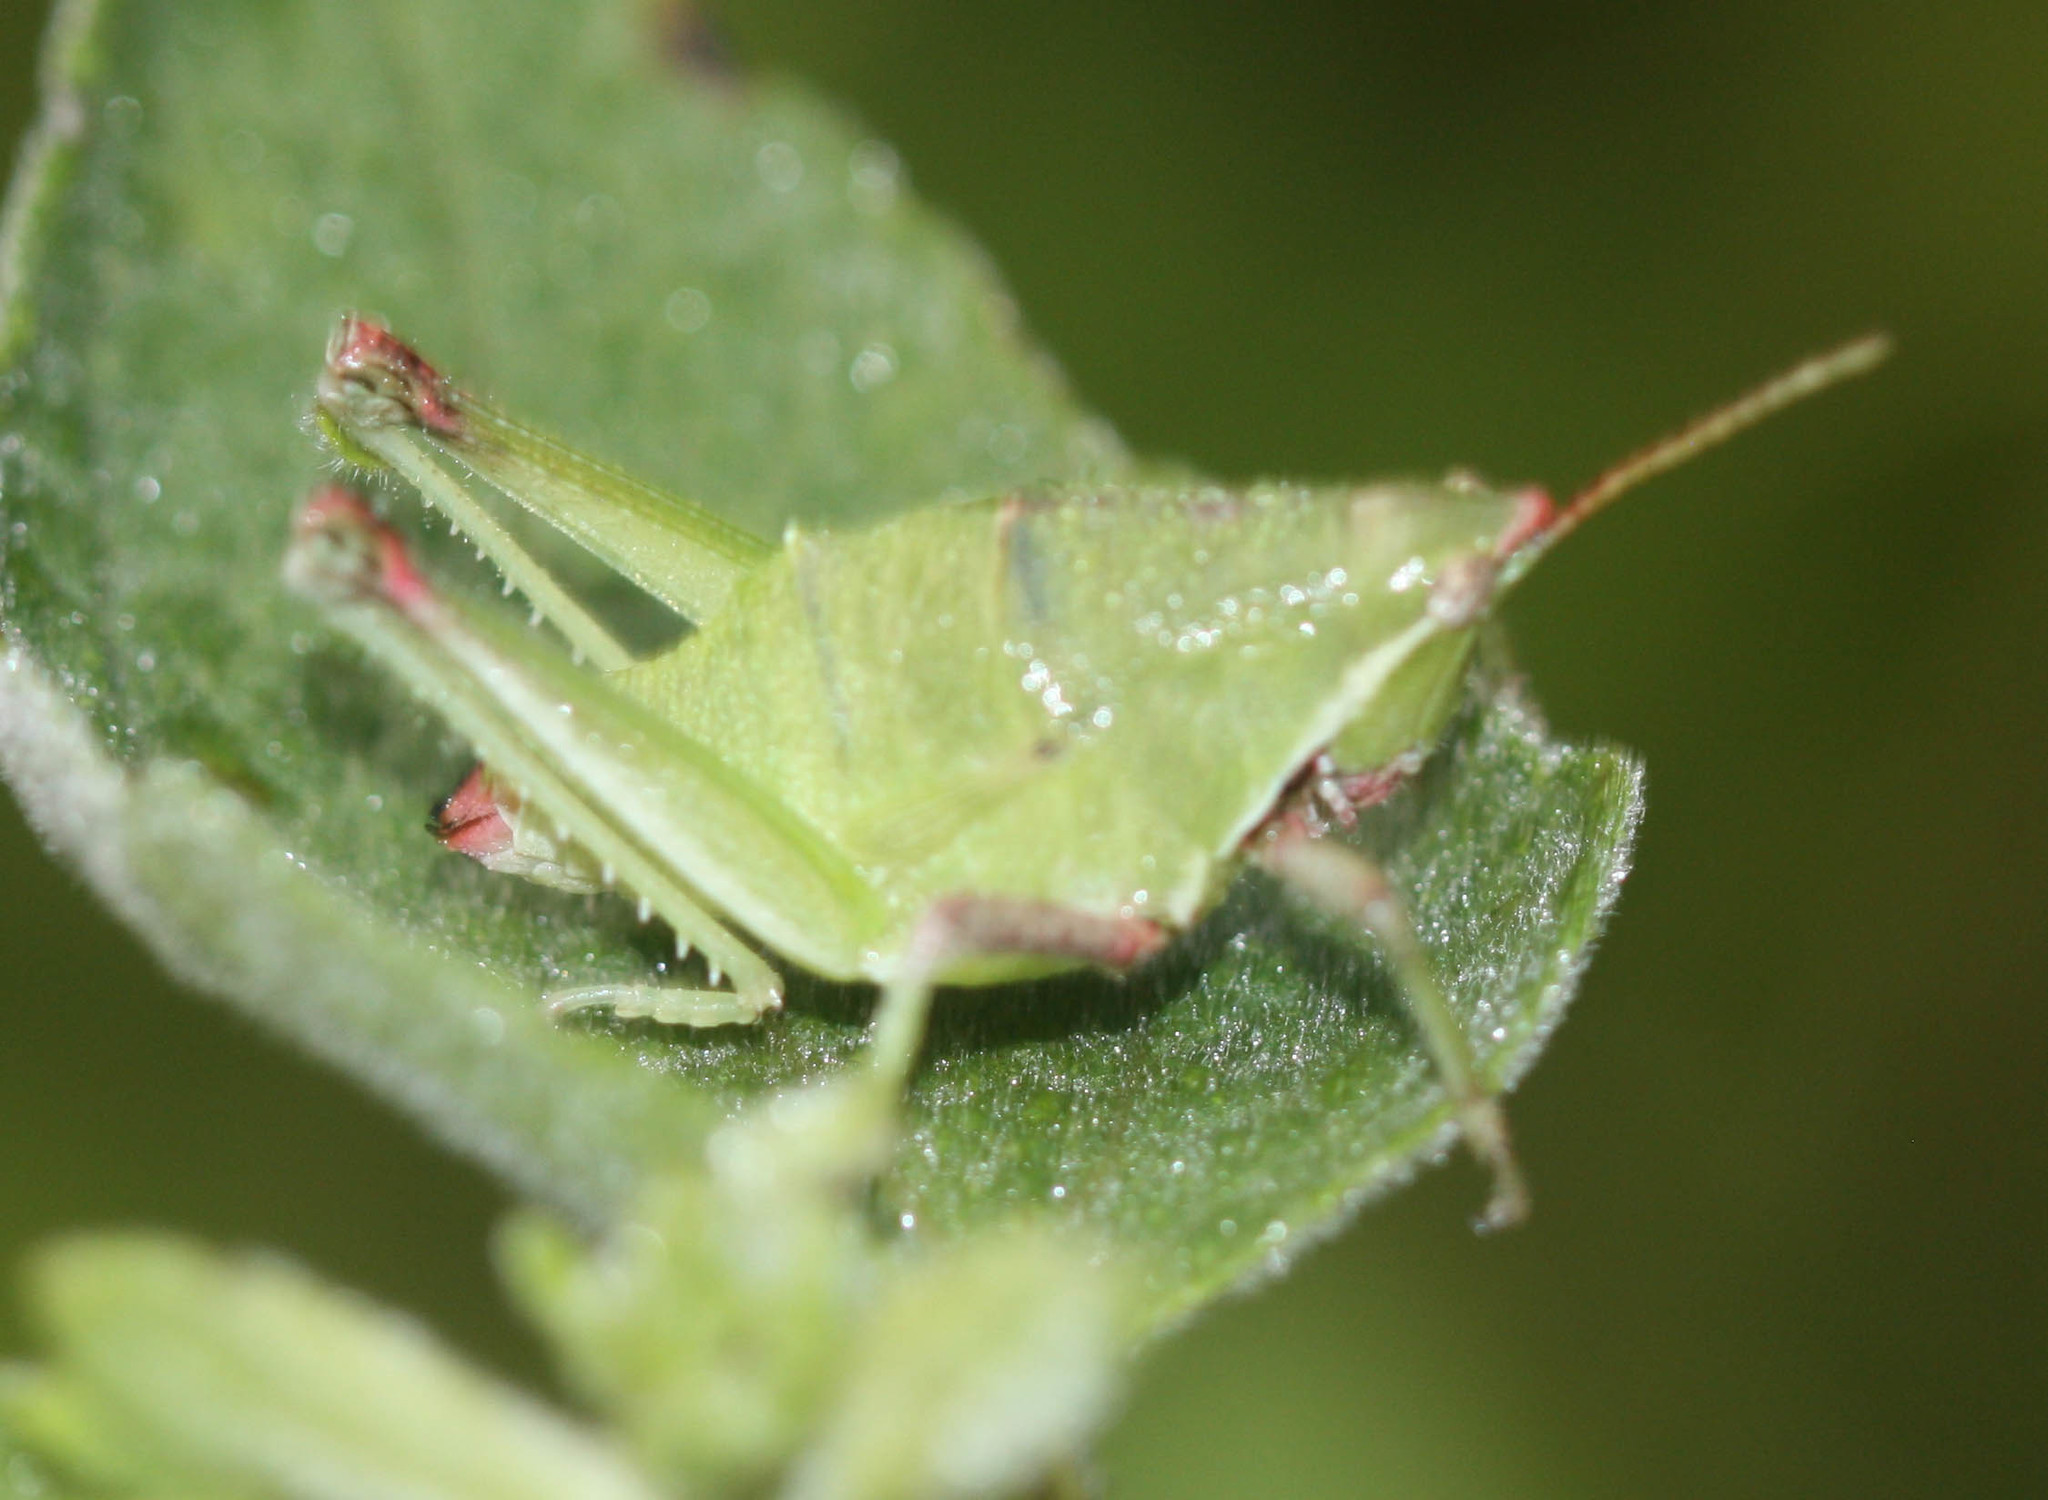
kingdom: Animalia
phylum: Arthropoda
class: Insecta
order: Orthoptera
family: Pyrgomorphidae
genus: Sphenarium
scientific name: Sphenarium purpurascens
